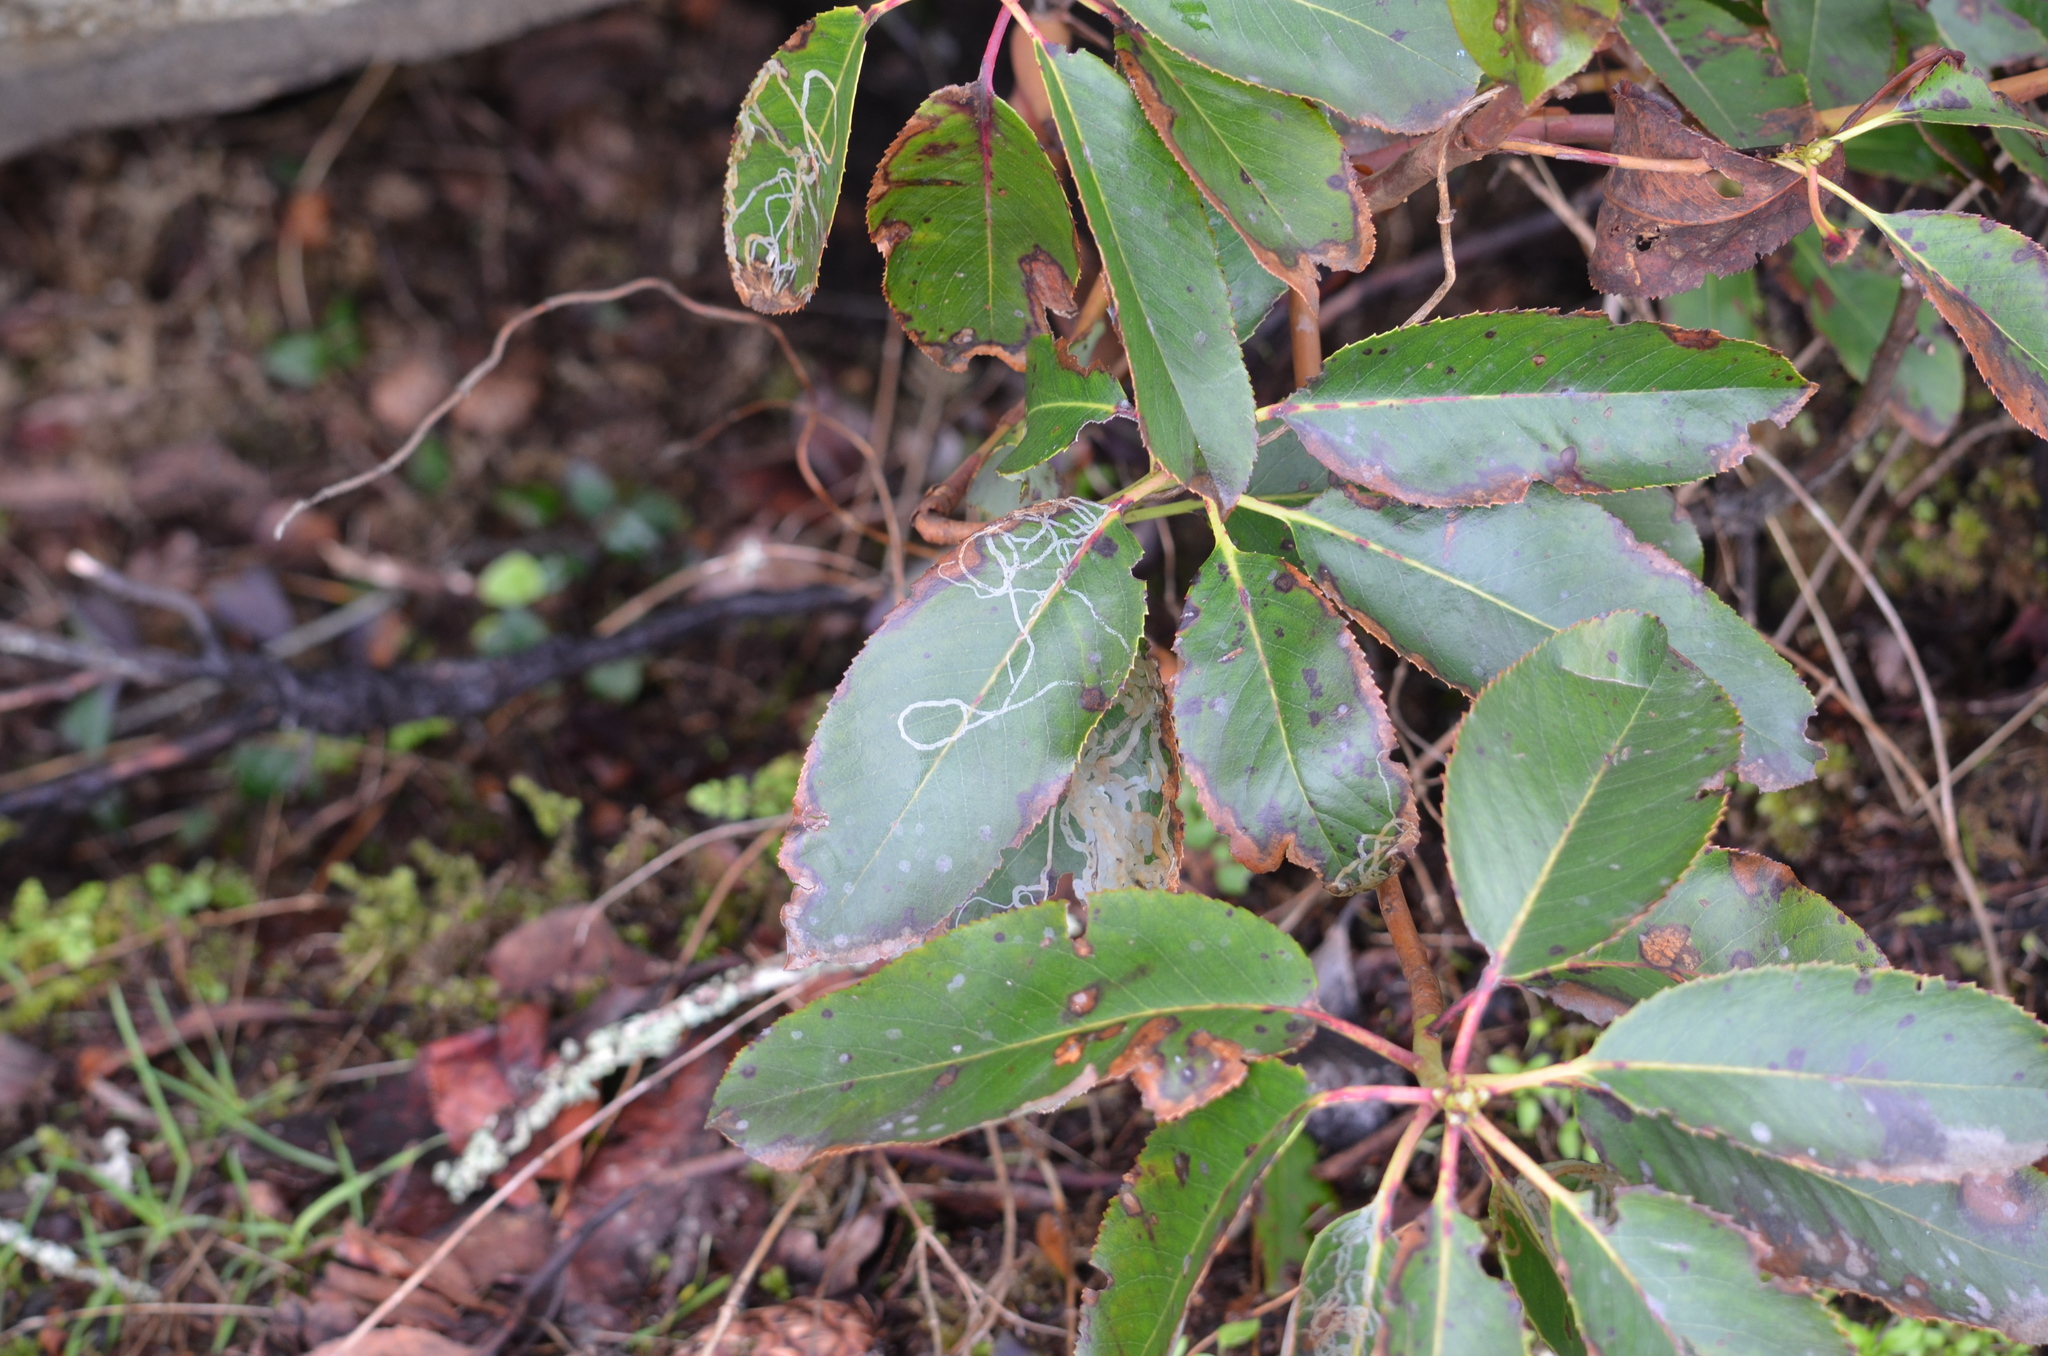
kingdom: Plantae
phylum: Tracheophyta
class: Magnoliopsida
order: Ericales
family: Ericaceae
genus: Arbutus
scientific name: Arbutus menziesii
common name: Pacific madrone
